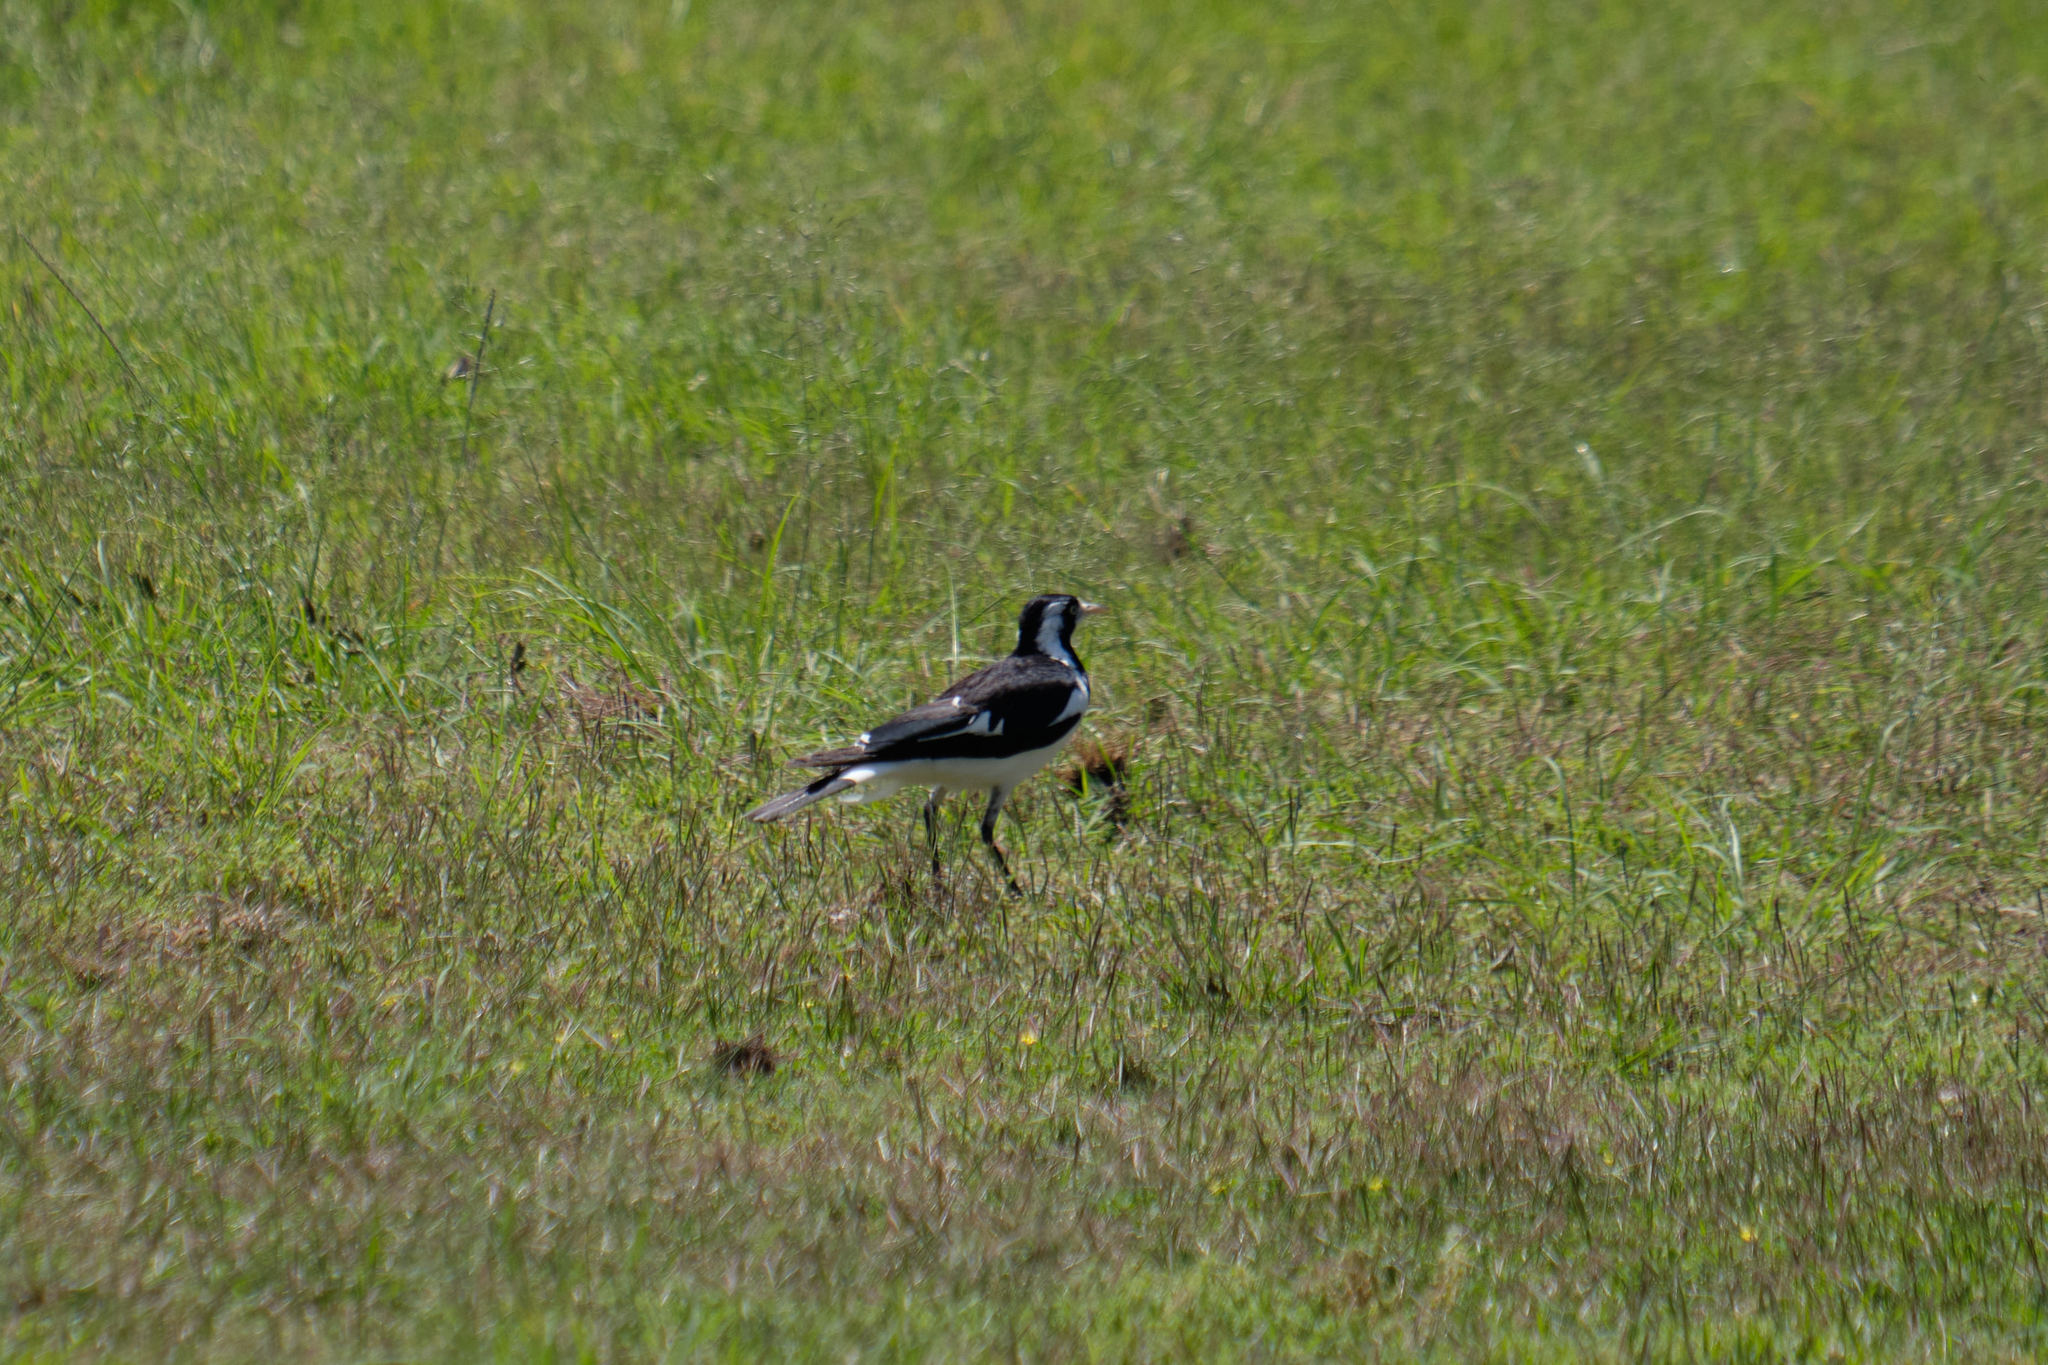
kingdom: Animalia
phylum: Chordata
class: Aves
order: Passeriformes
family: Monarchidae
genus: Grallina
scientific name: Grallina cyanoleuca
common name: Magpie-lark
